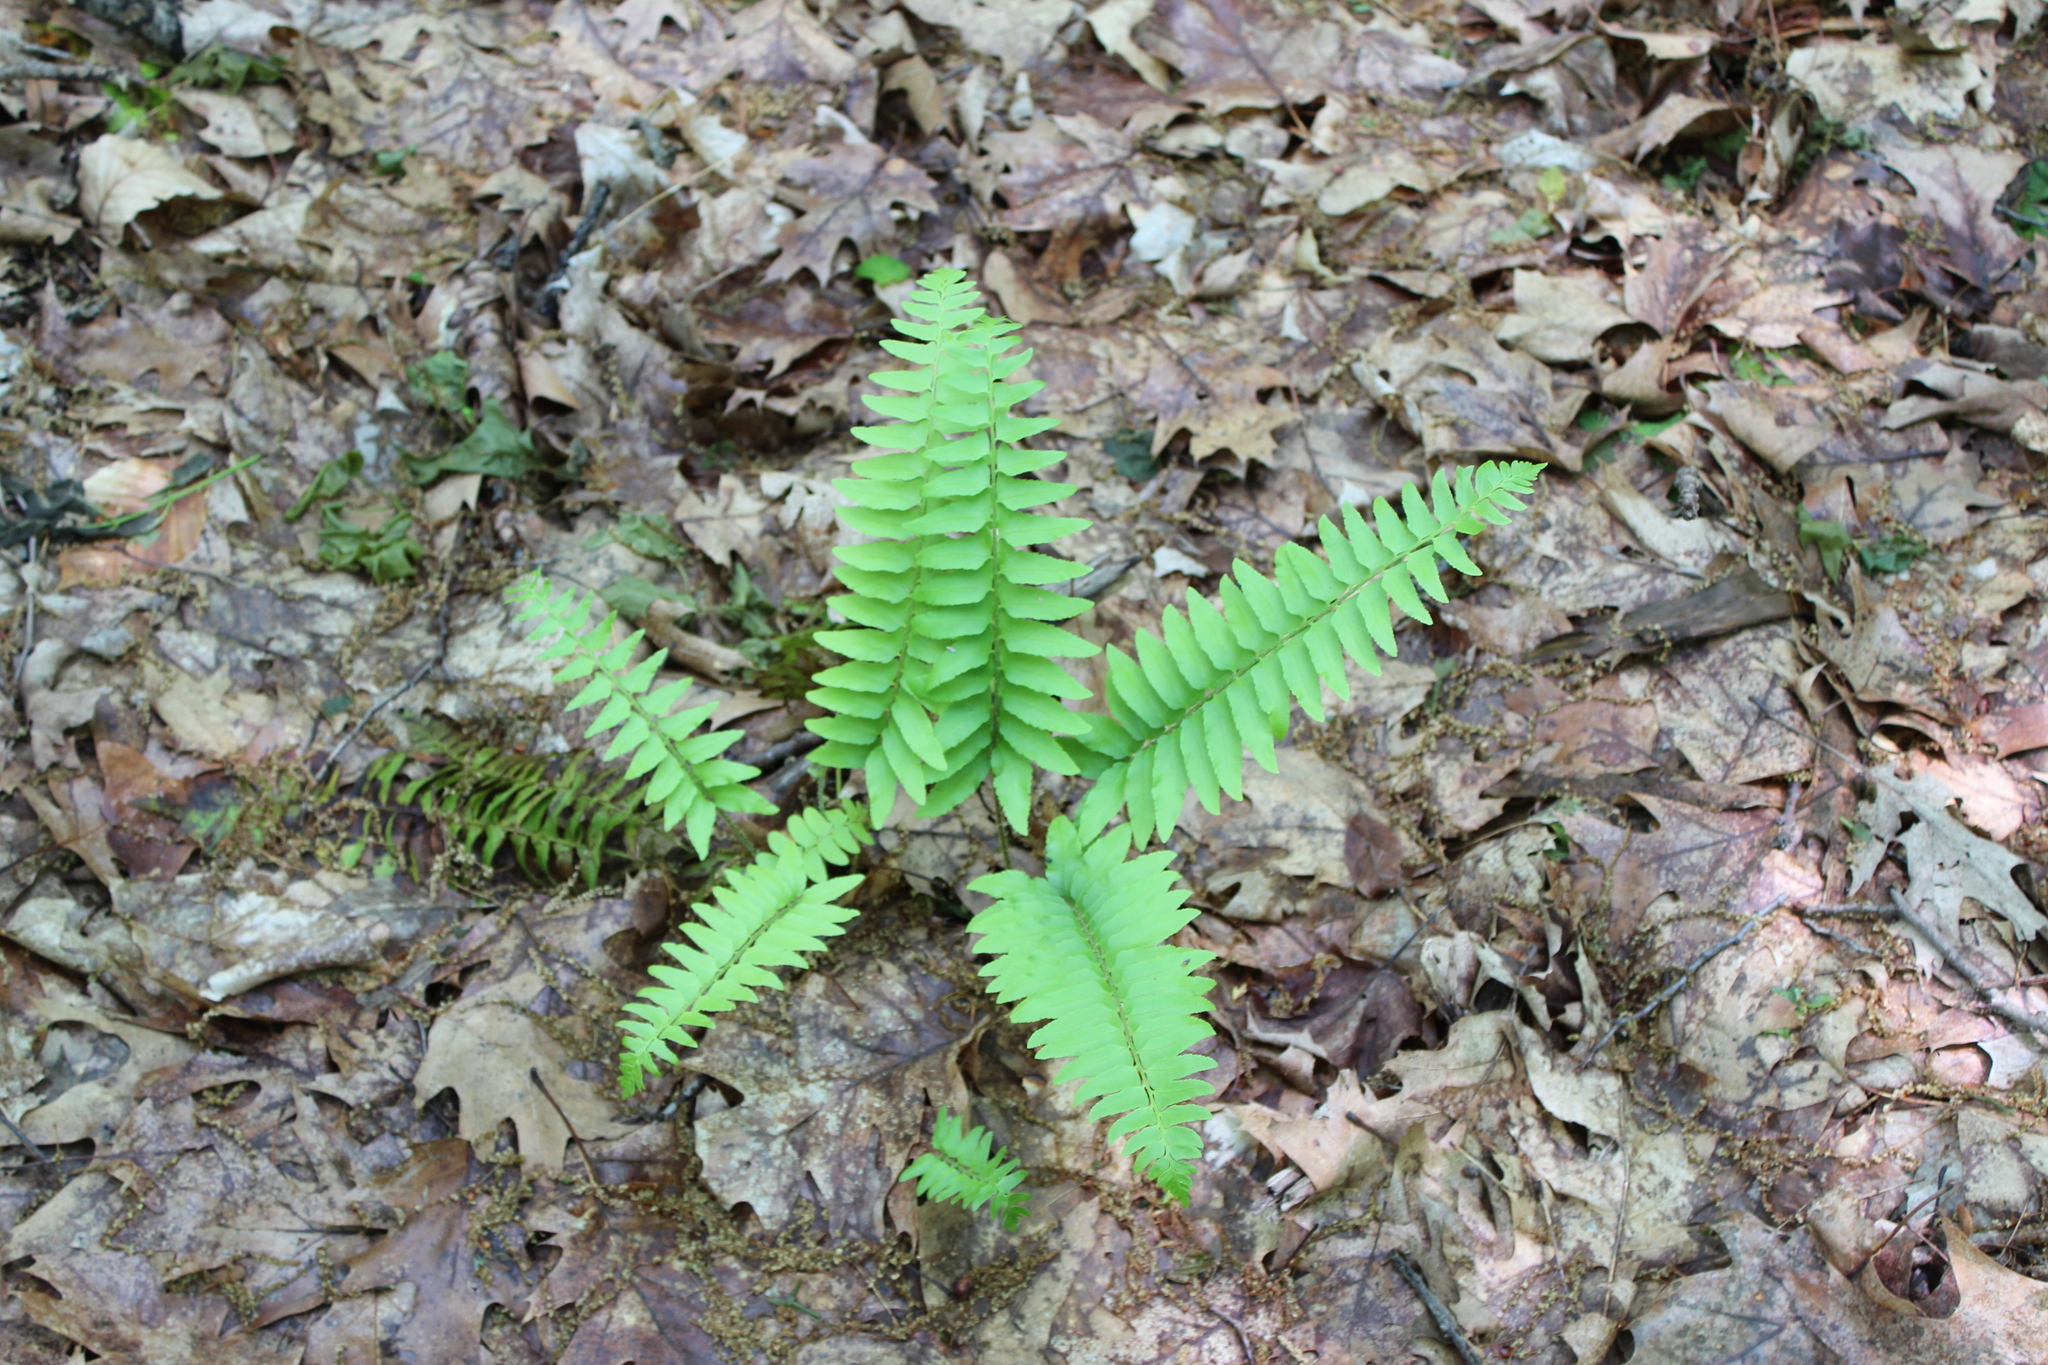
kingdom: Plantae
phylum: Tracheophyta
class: Polypodiopsida
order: Polypodiales
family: Dryopteridaceae
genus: Polystichum
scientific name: Polystichum acrostichoides
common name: Christmas fern
